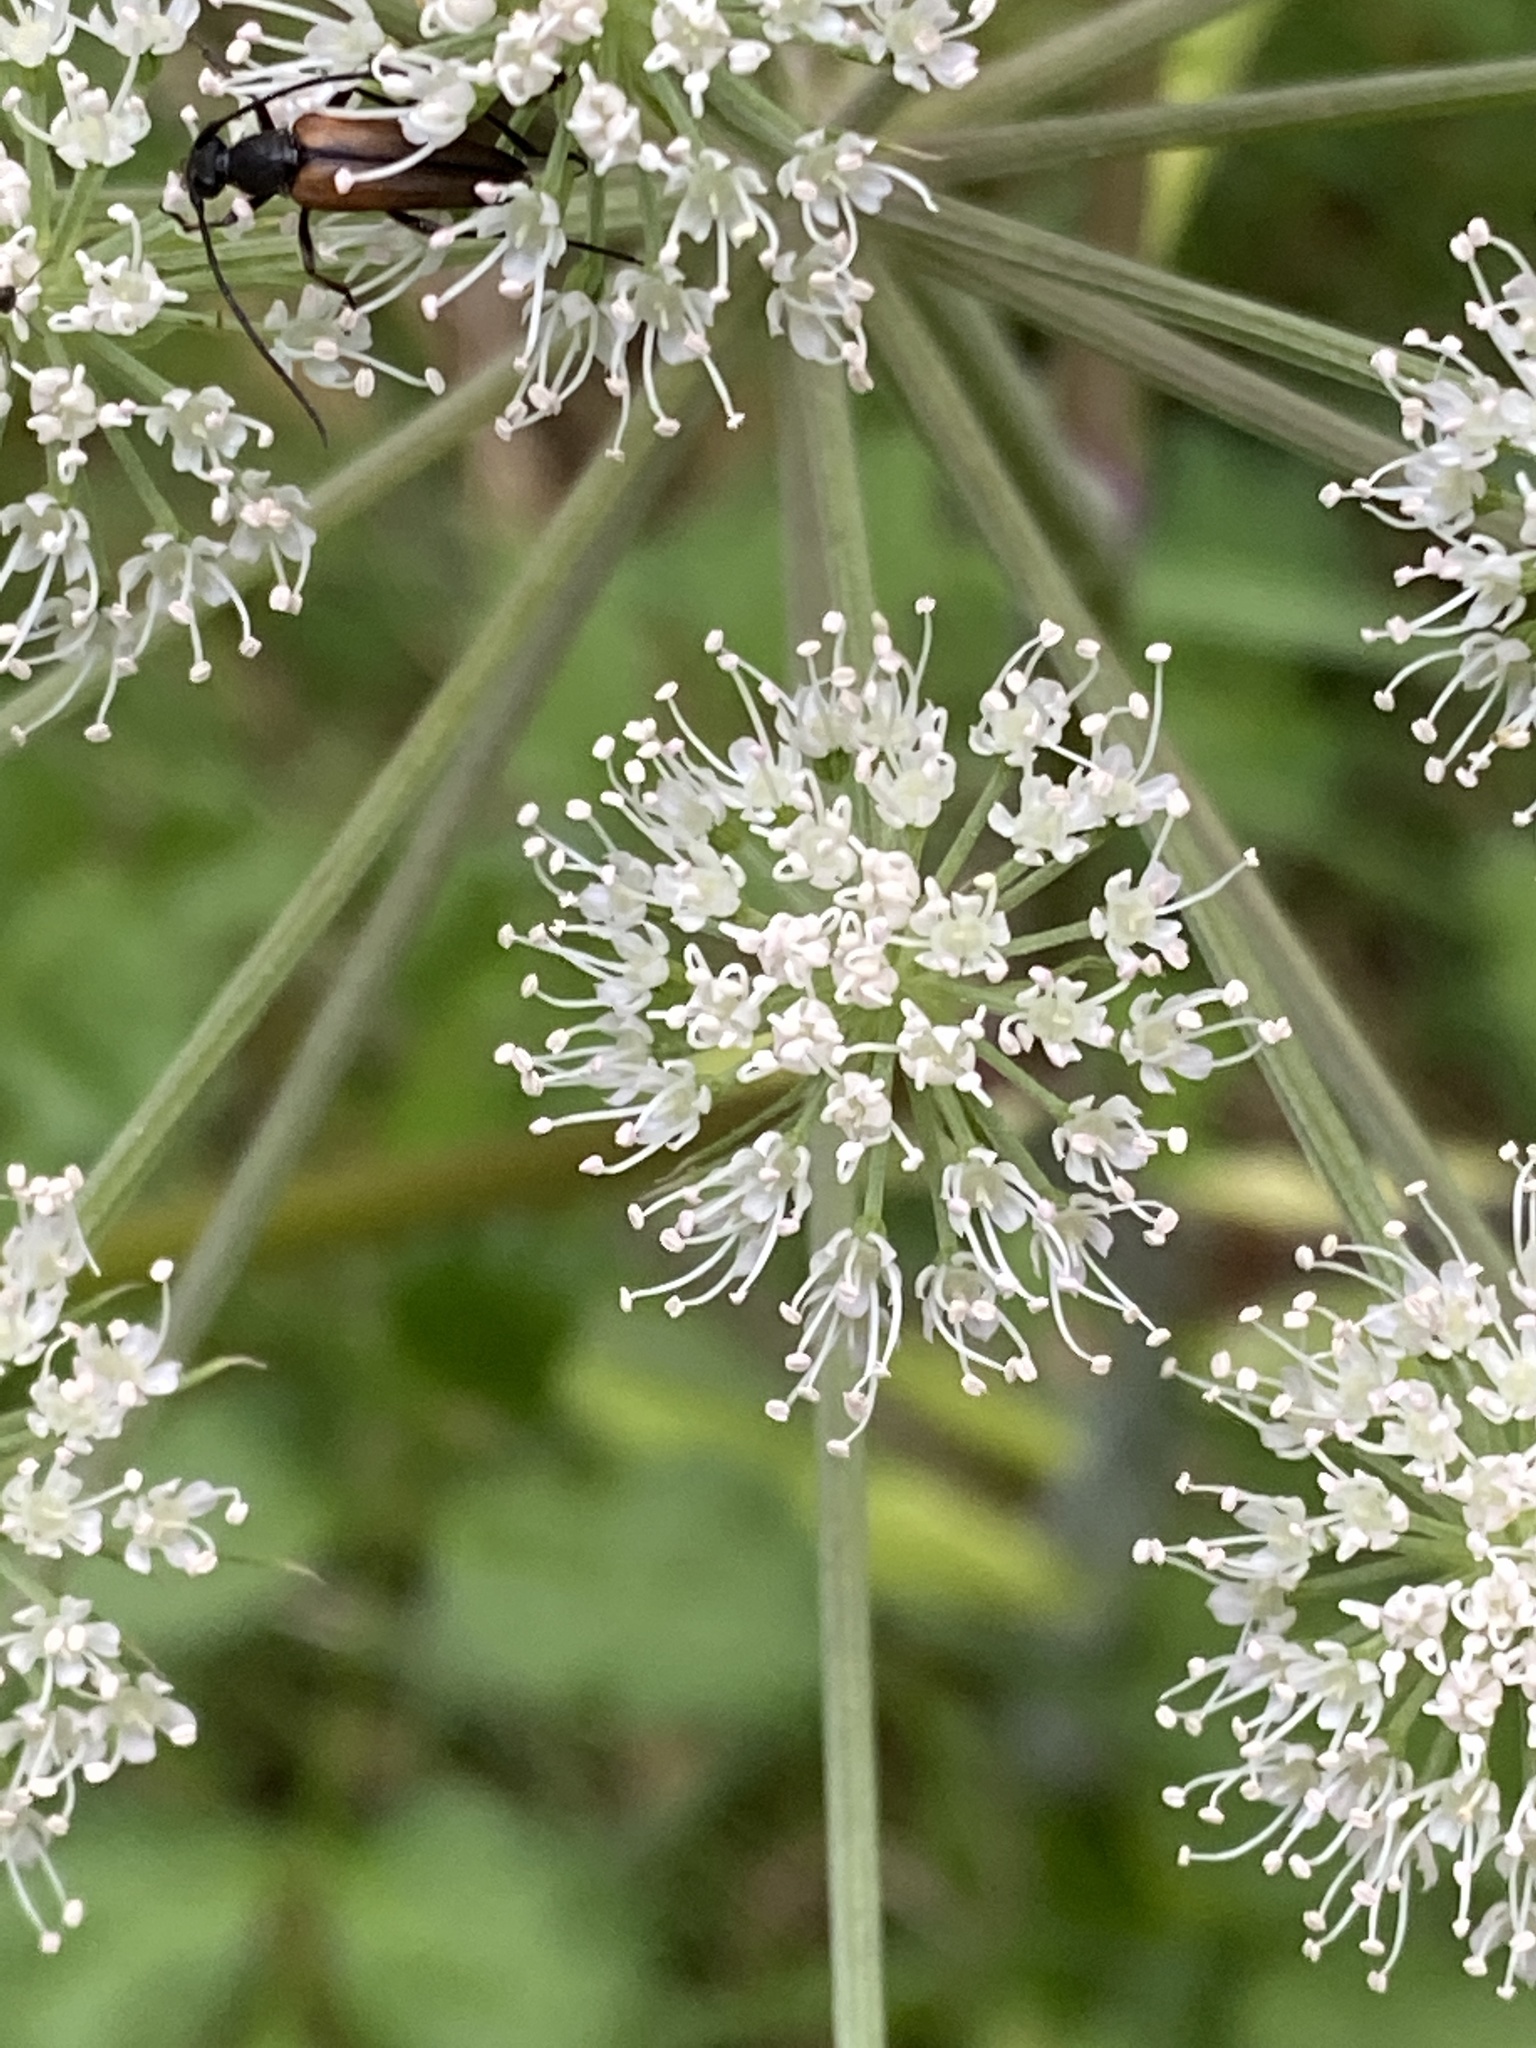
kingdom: Plantae
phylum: Tracheophyta
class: Magnoliopsida
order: Apiales
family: Apiaceae
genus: Angelica
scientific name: Angelica sylvestris
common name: Wild angelica
